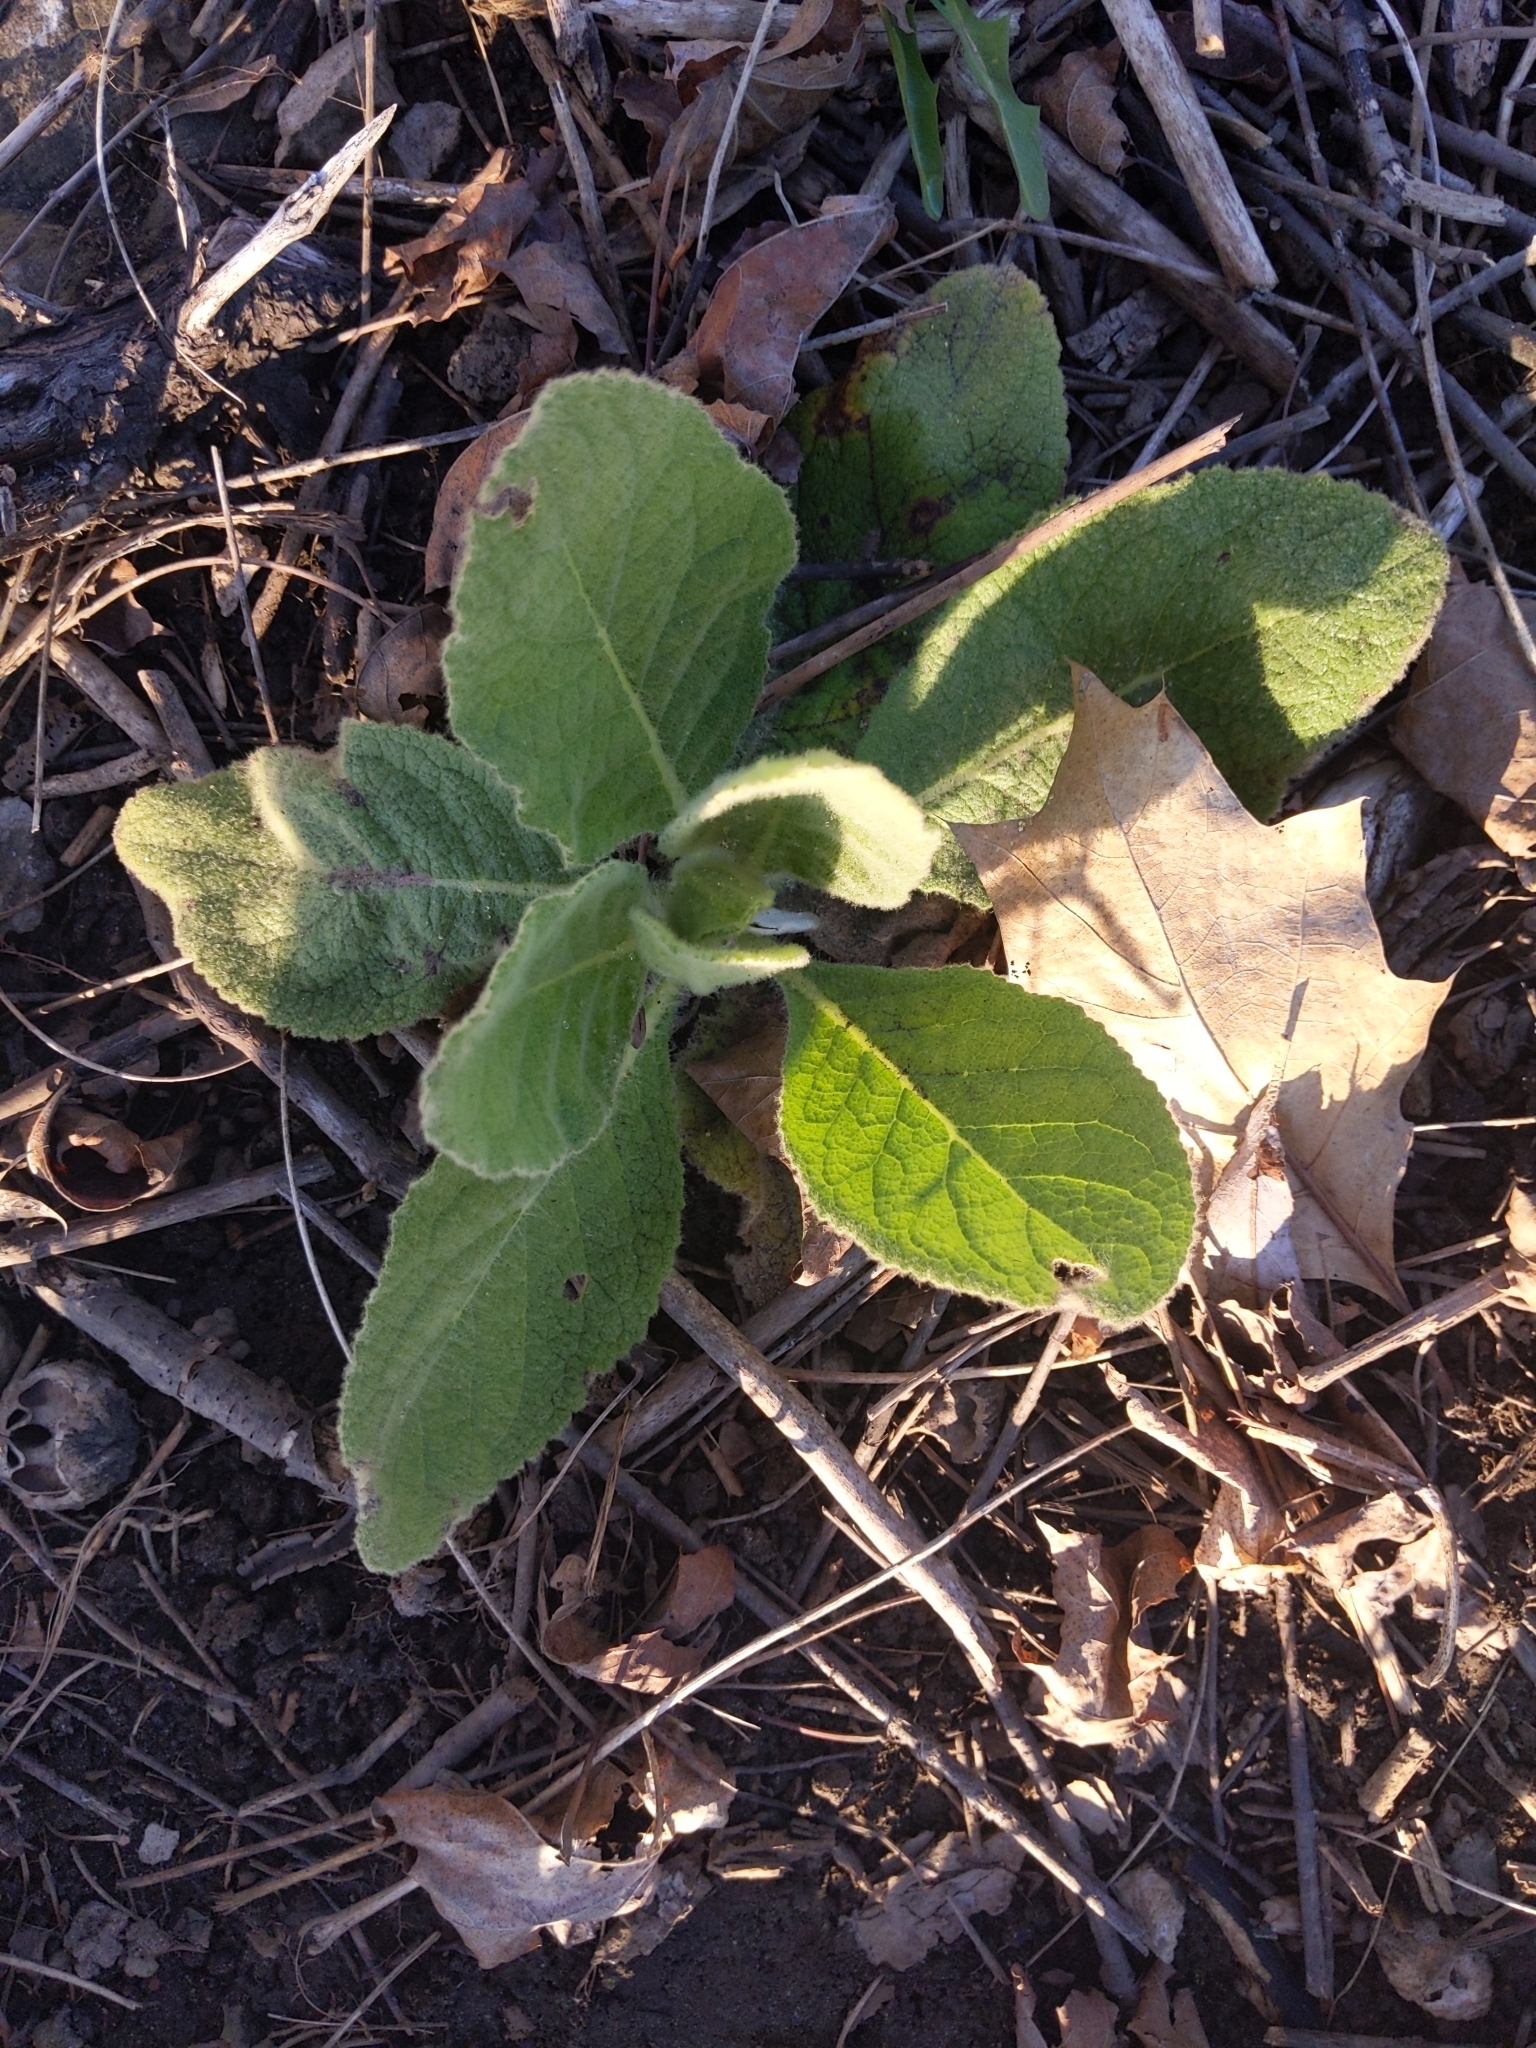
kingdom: Plantae
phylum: Tracheophyta
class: Magnoliopsida
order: Lamiales
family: Scrophulariaceae
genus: Verbascum
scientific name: Verbascum thapsus
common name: Common mullein
